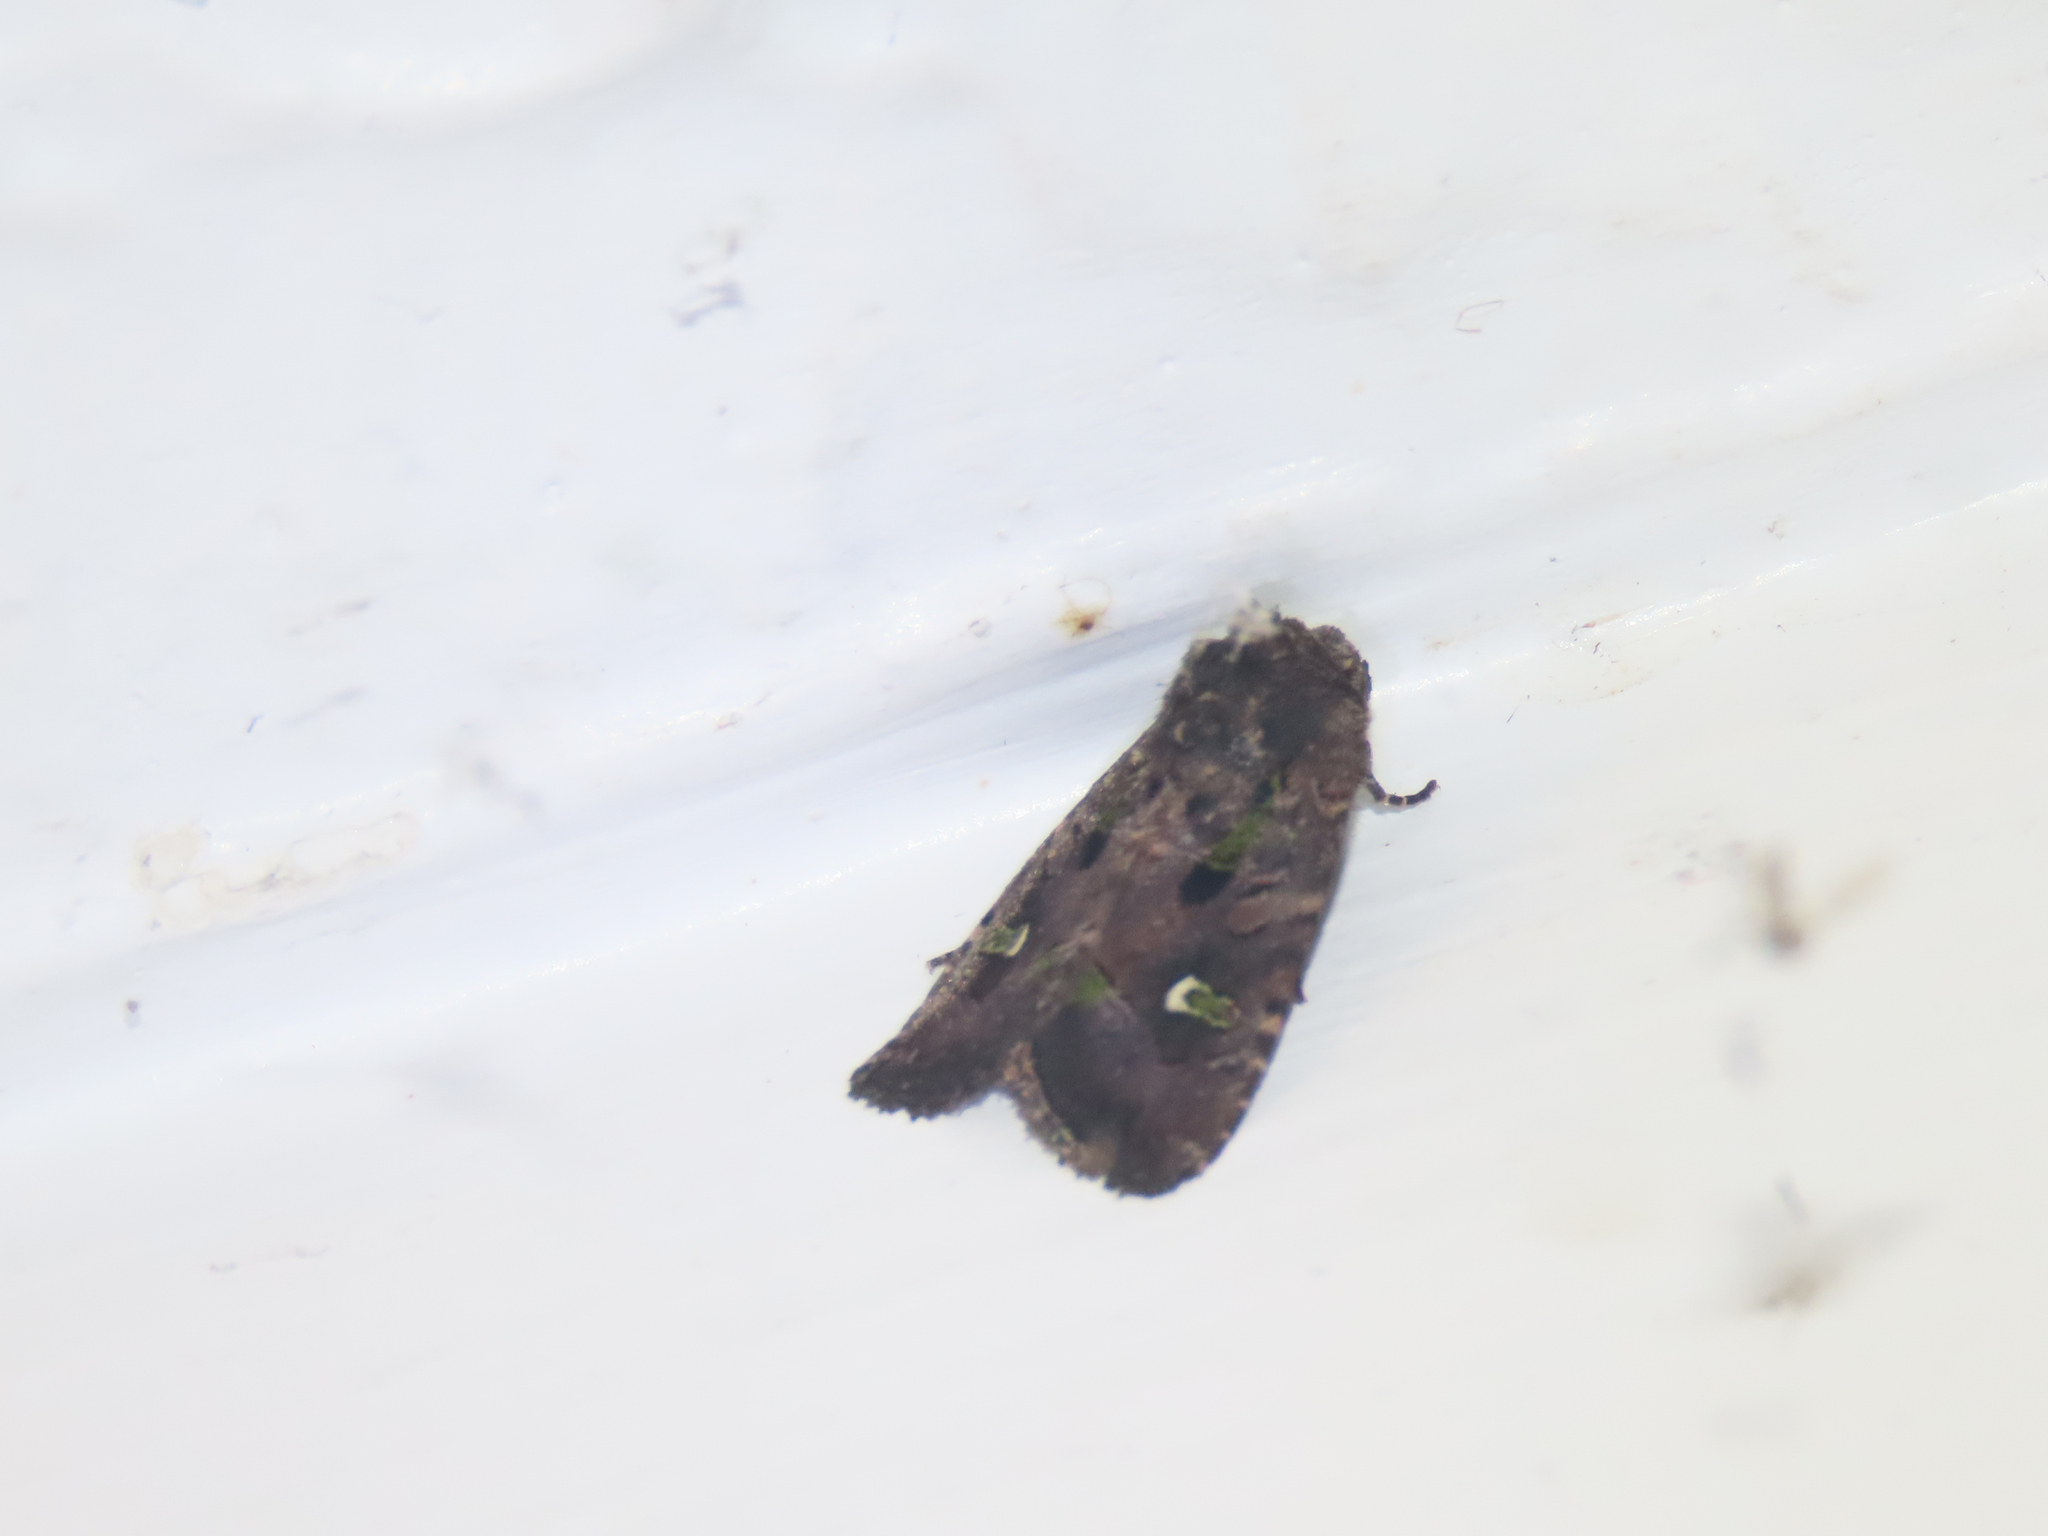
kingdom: Animalia
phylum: Arthropoda
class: Insecta
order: Lepidoptera
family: Noctuidae
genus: Lacinipolia
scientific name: Lacinipolia renigera
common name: Kidney-spotted minor
